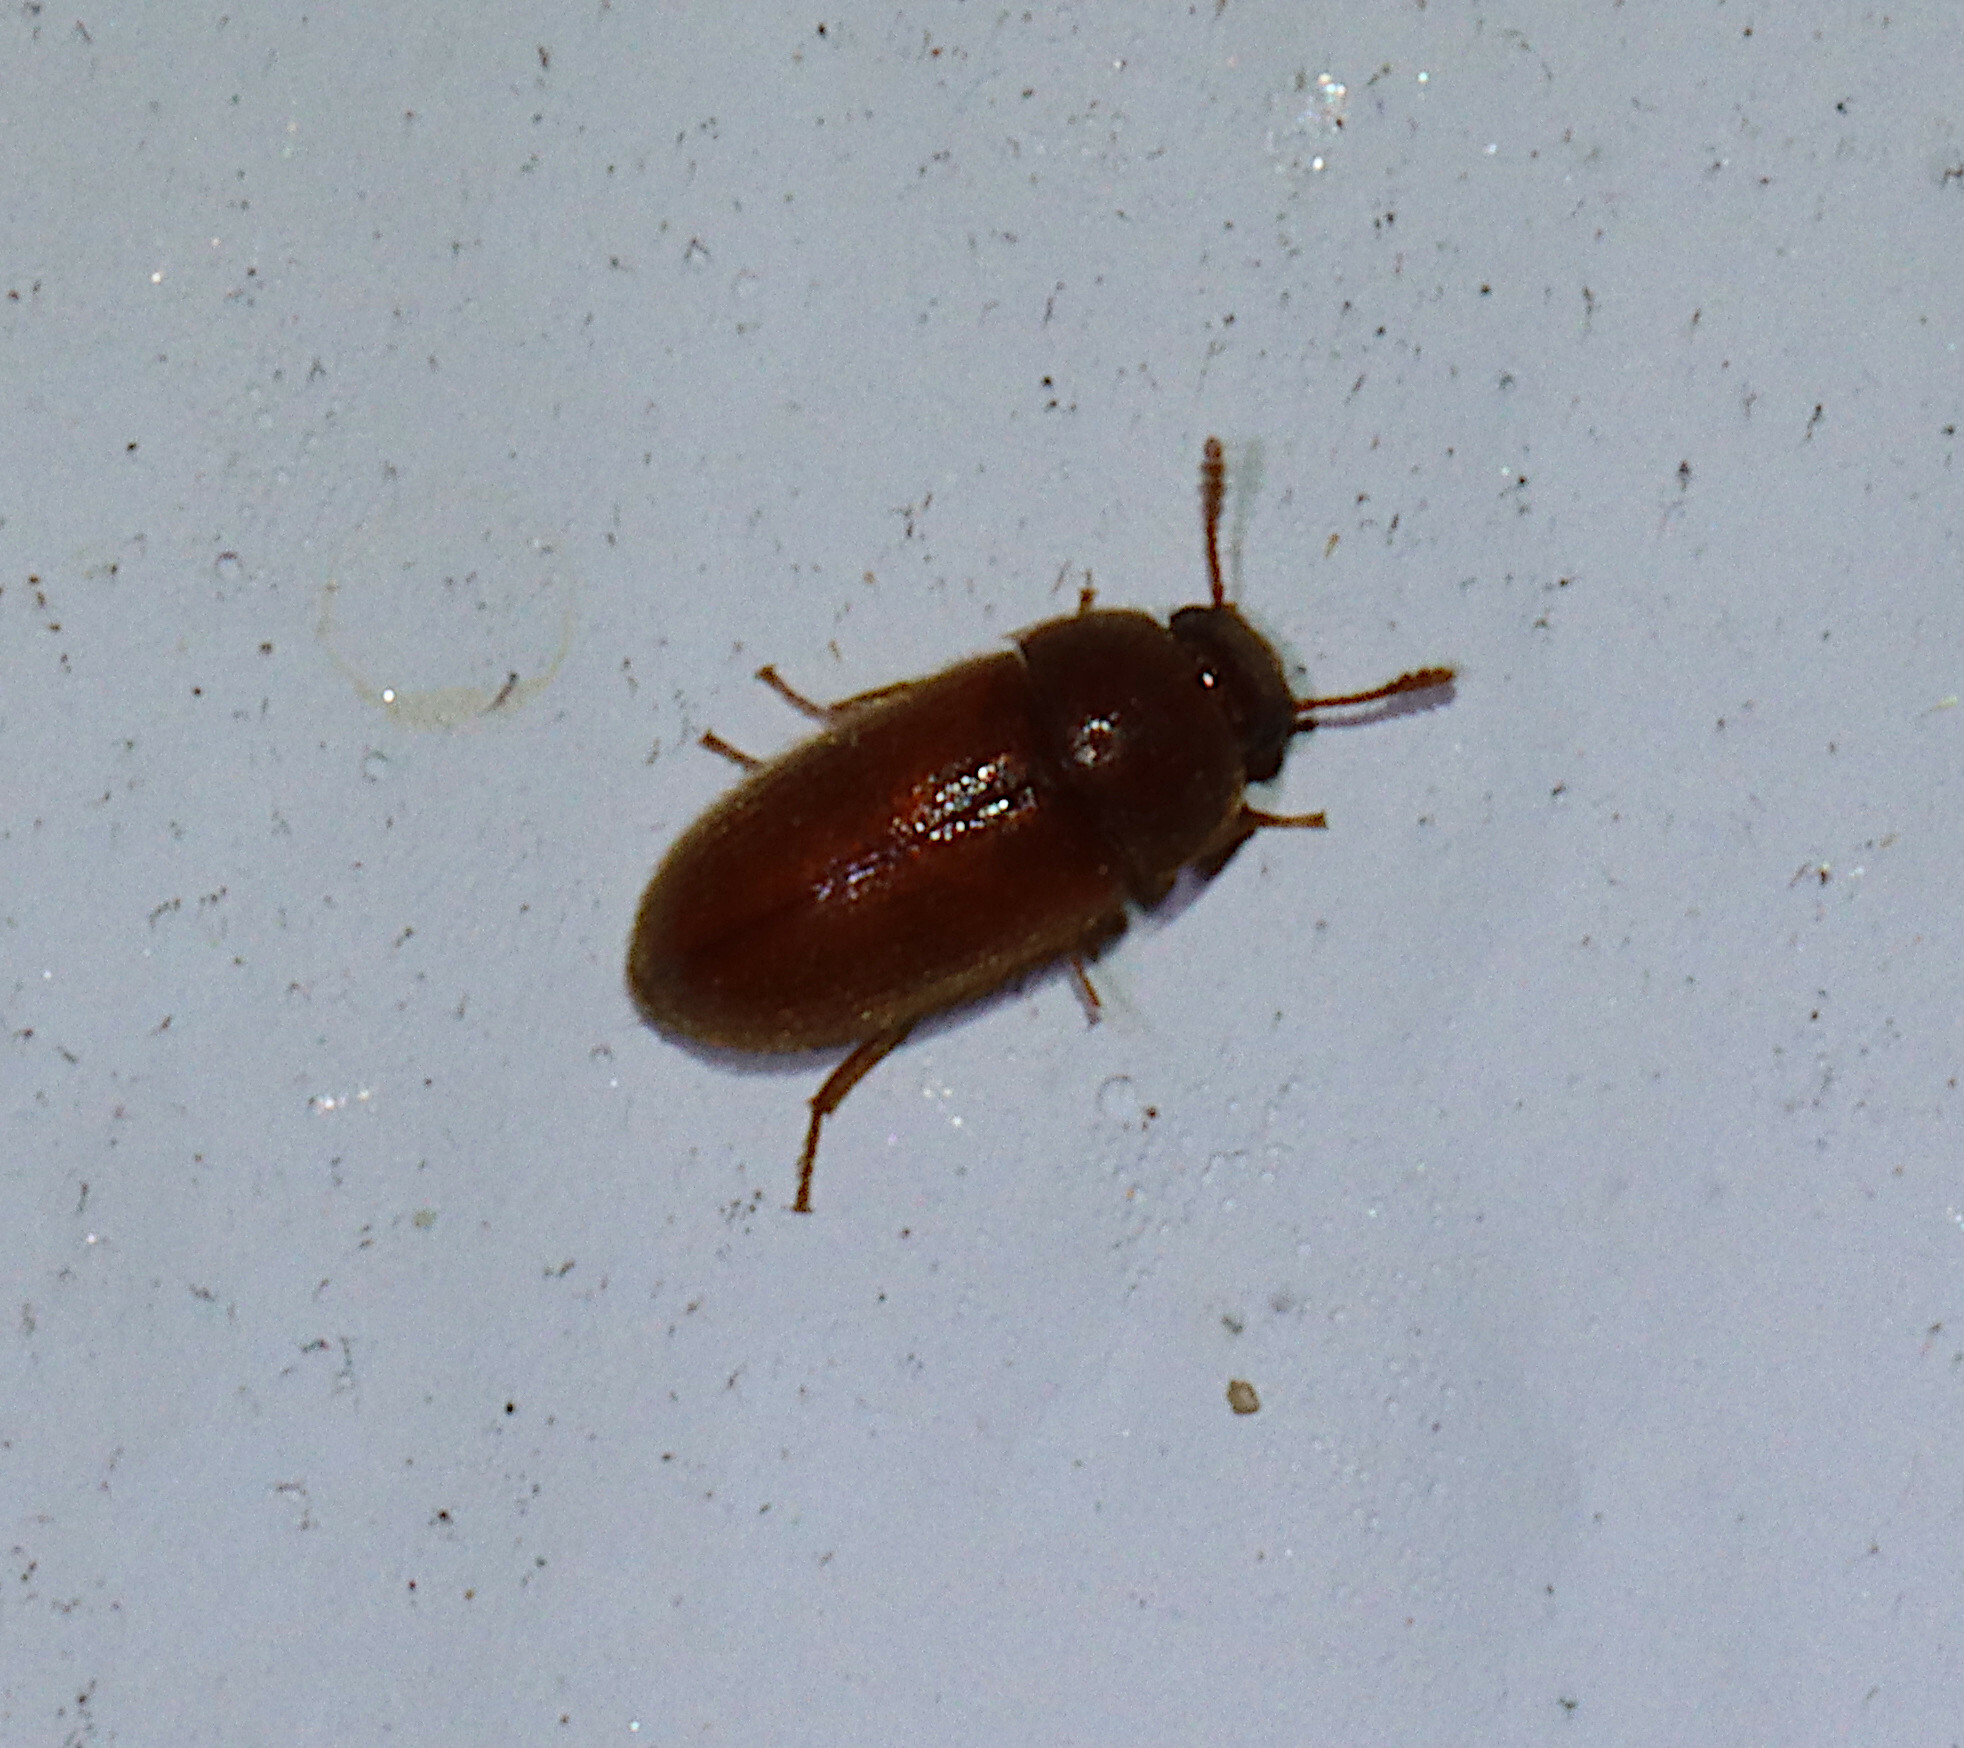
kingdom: Animalia
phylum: Arthropoda
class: Insecta
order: Coleoptera
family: Mycetophagidae
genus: Typhaea
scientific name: Typhaea stercorea
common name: Hairy fungus beetle
